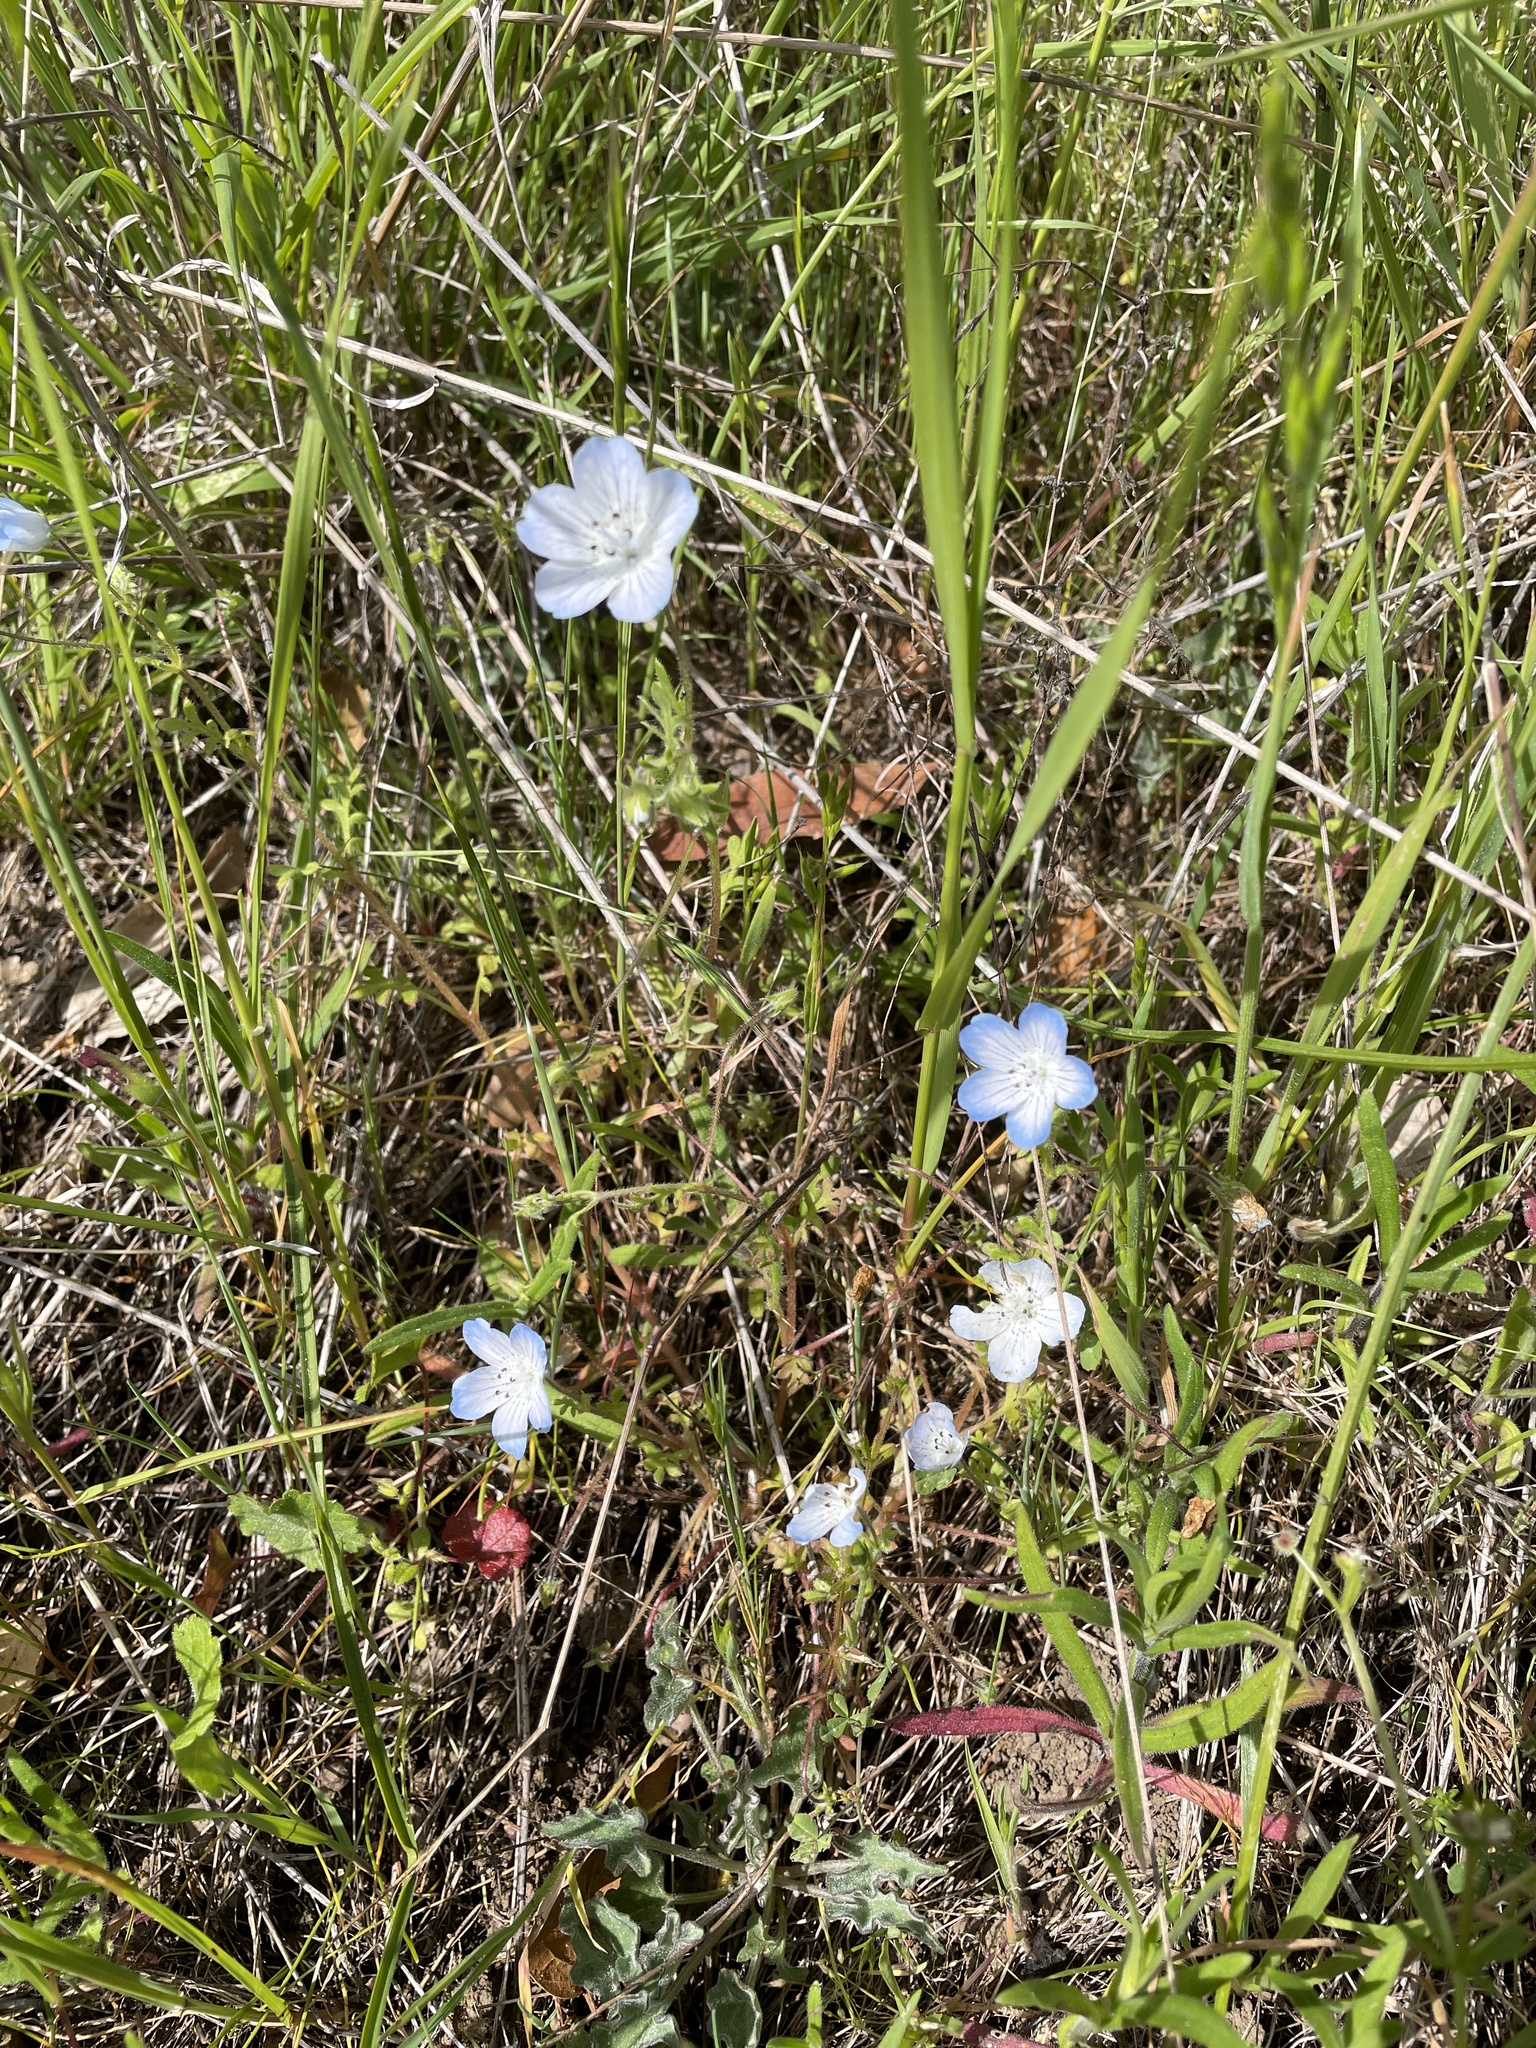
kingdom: Plantae
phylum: Tracheophyta
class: Magnoliopsida
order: Boraginales
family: Hydrophyllaceae
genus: Nemophila
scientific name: Nemophila menziesii
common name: Baby's-blue-eyes
